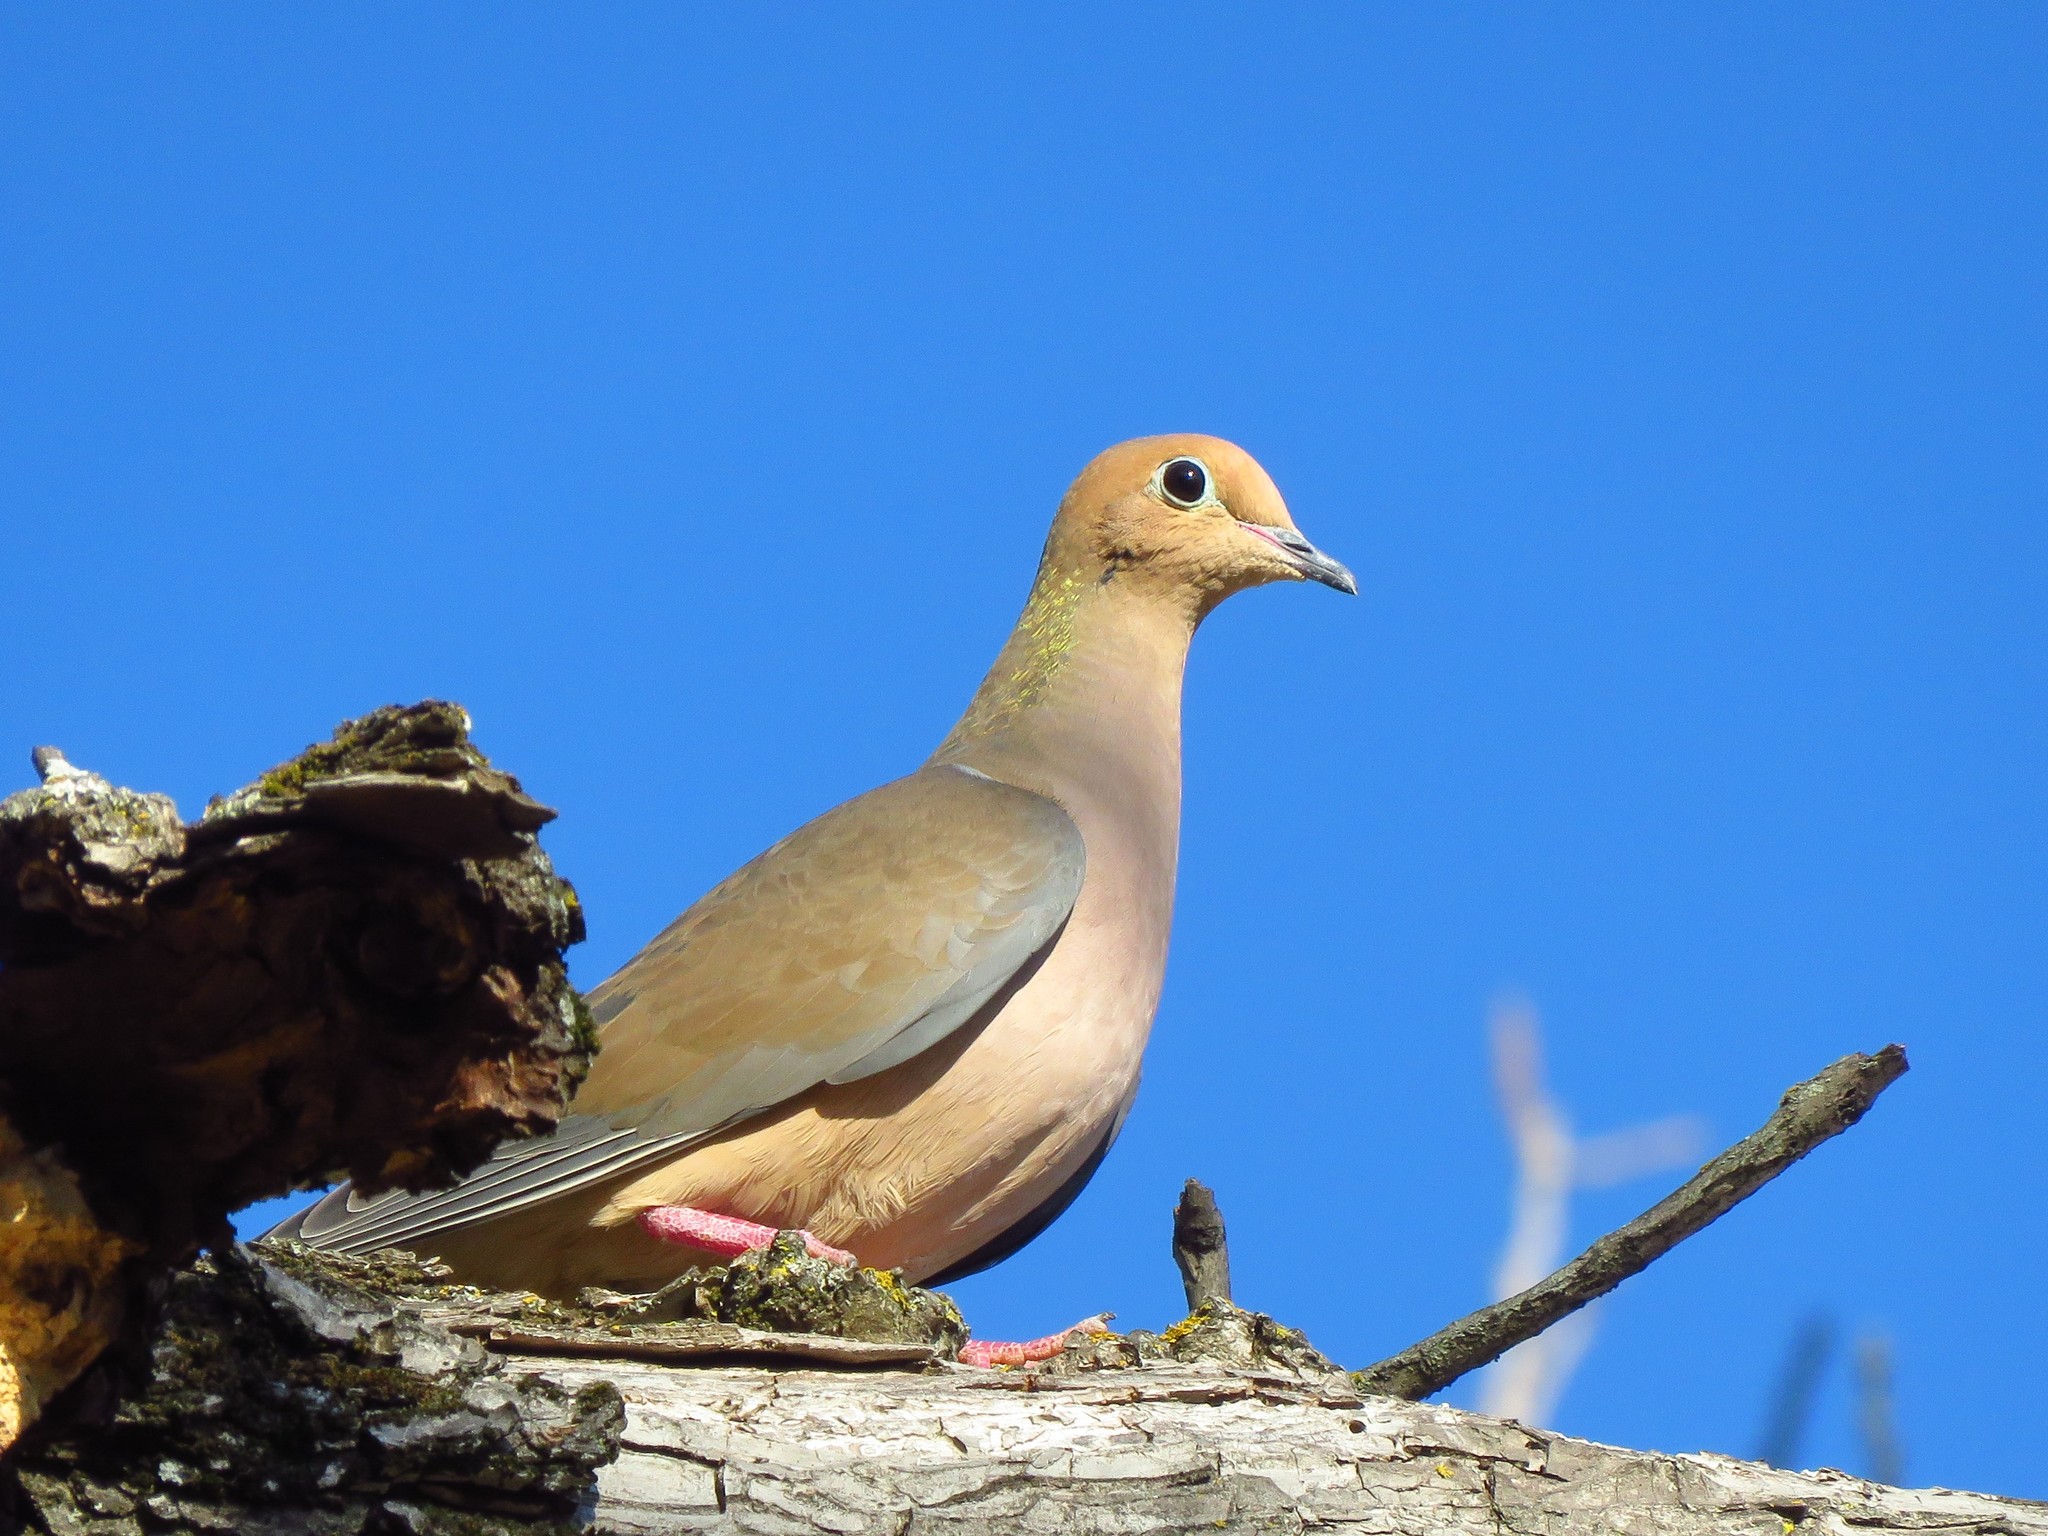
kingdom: Animalia
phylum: Chordata
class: Aves
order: Columbiformes
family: Columbidae
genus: Zenaida
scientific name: Zenaida macroura
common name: Mourning dove
